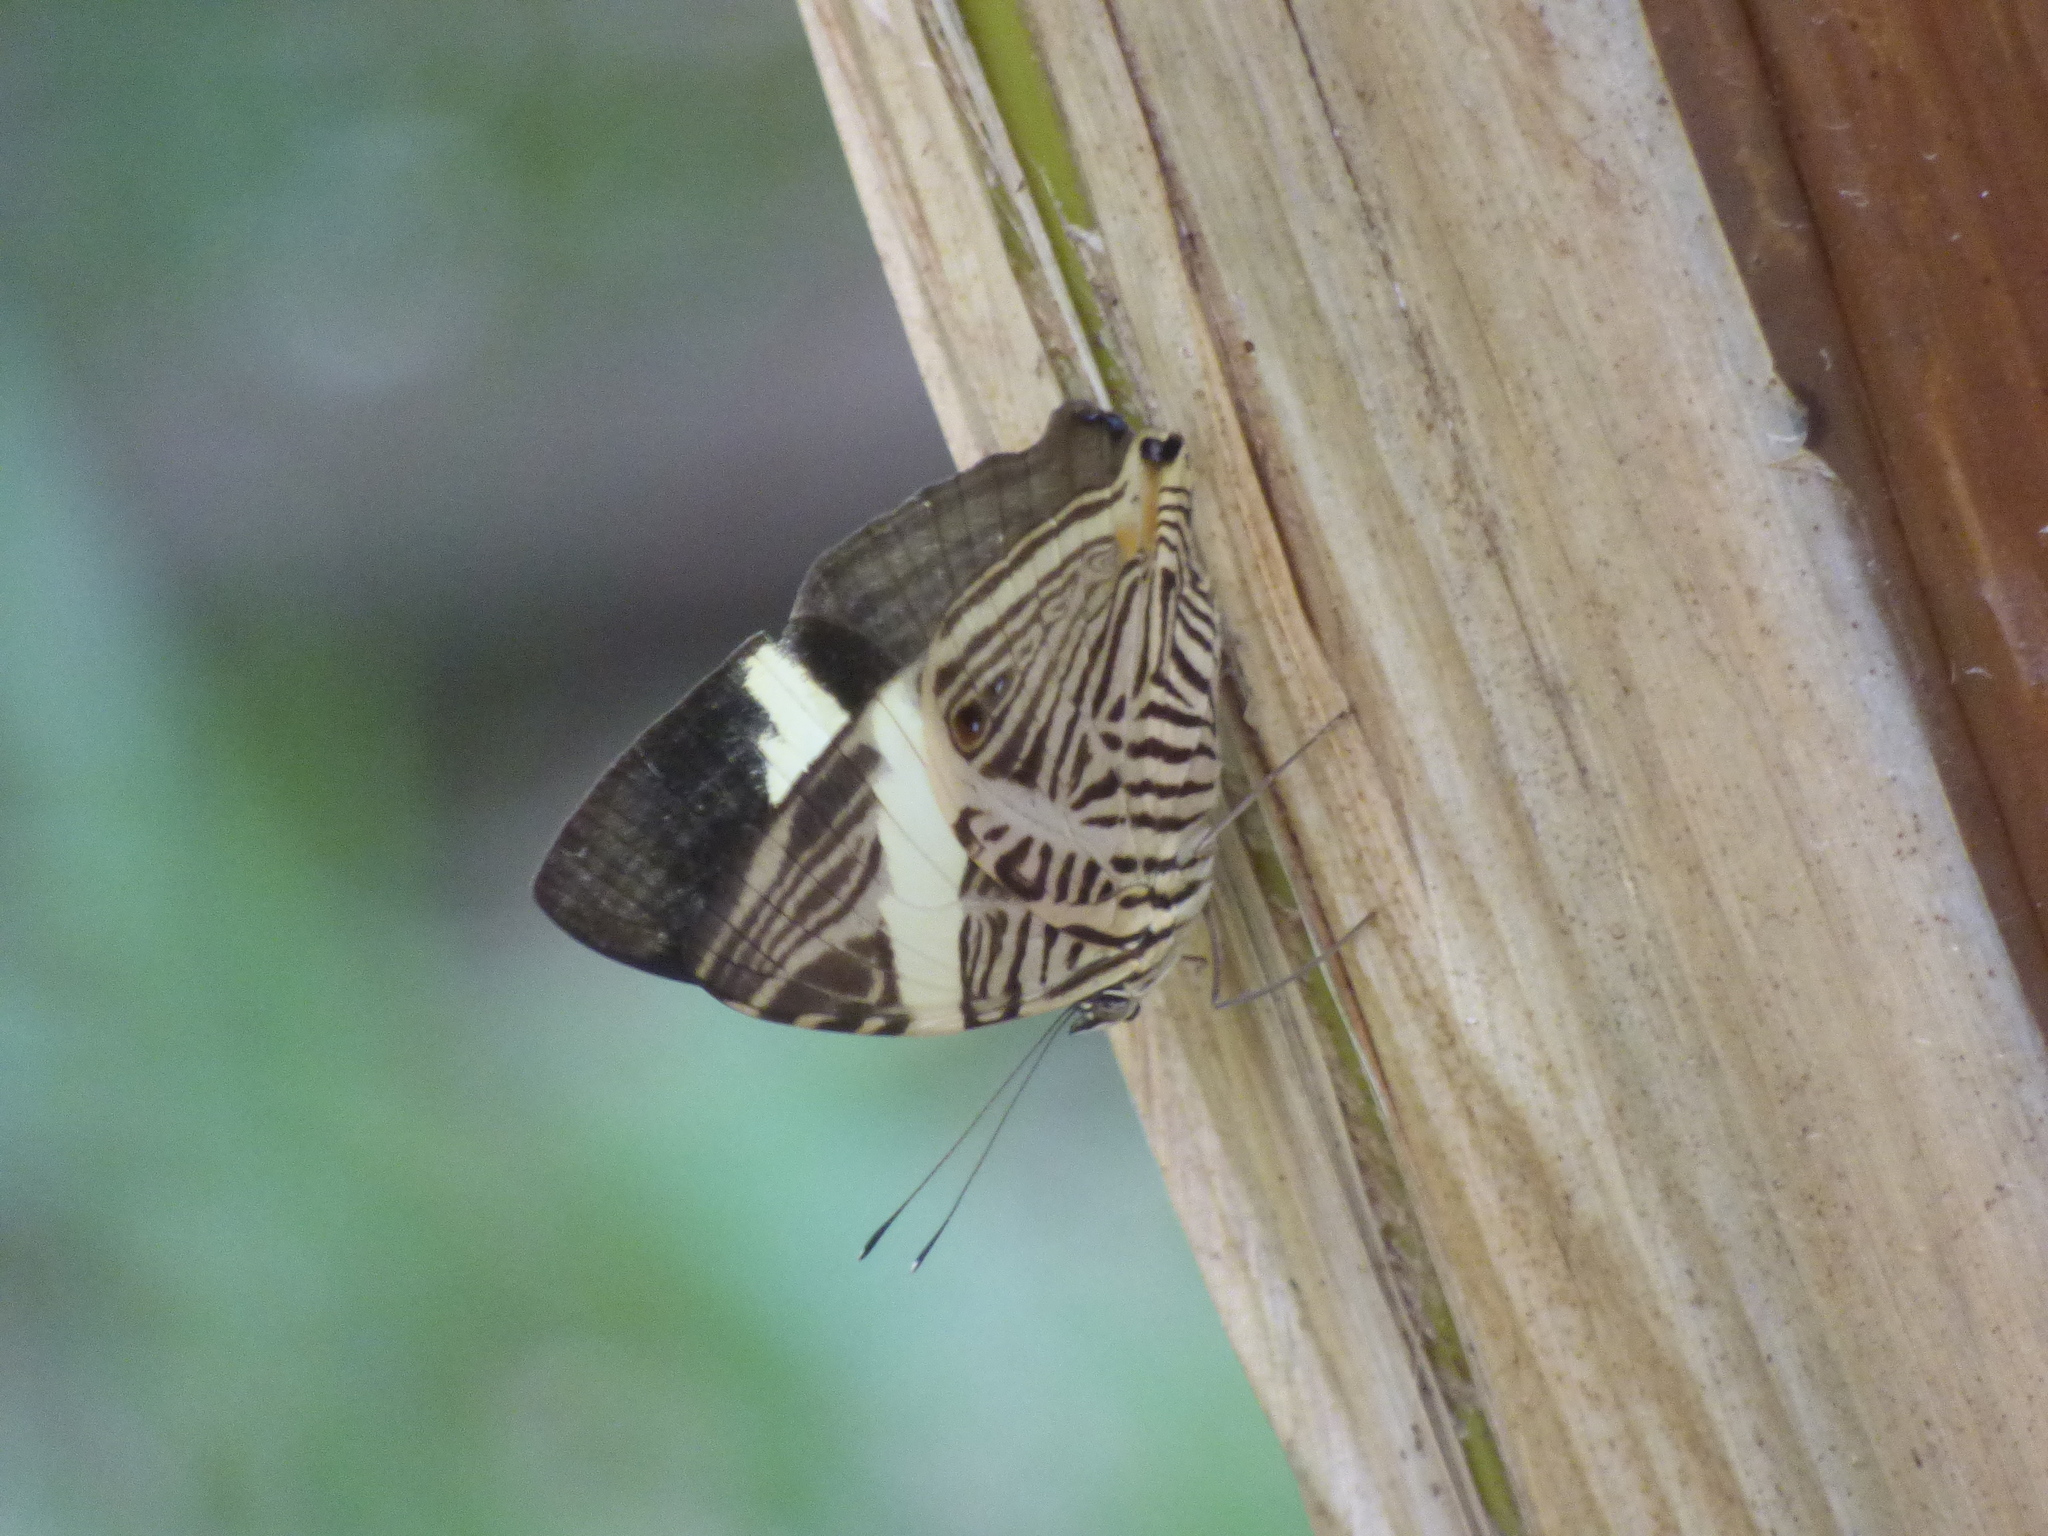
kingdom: Animalia
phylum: Arthropoda
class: Insecta
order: Lepidoptera
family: Nymphalidae
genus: Colobura
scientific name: Colobura dirce
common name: Dirce beauty
